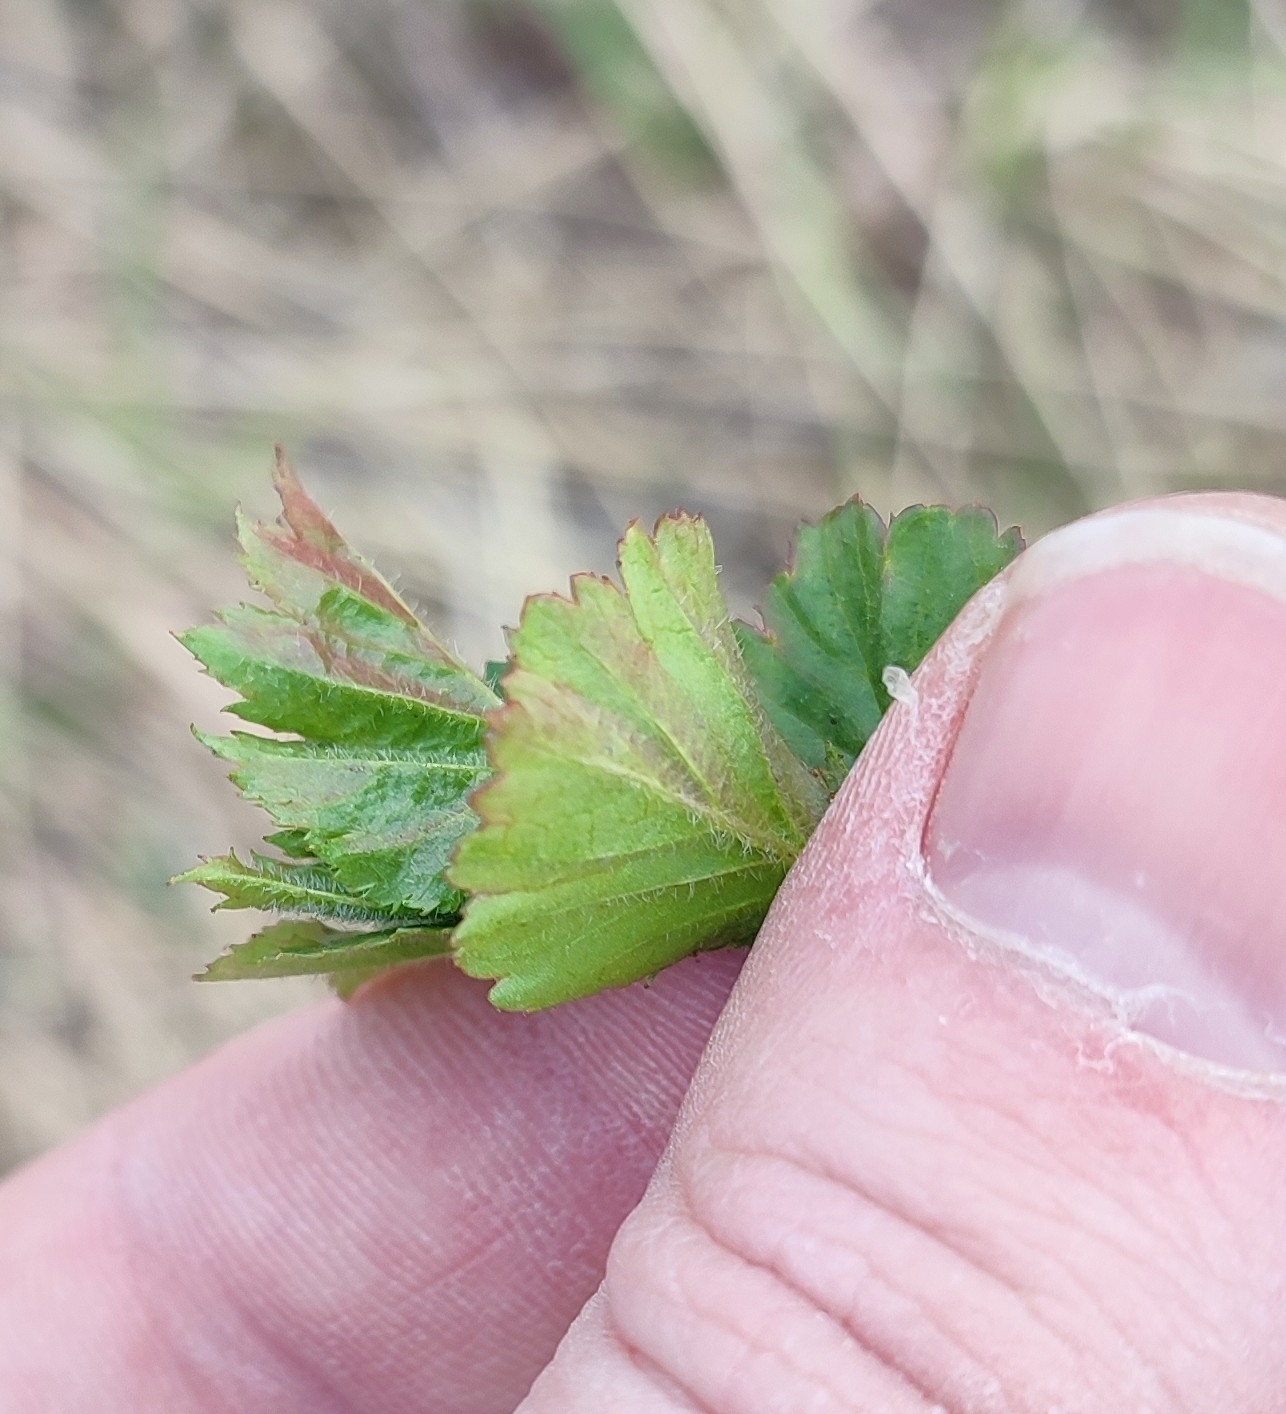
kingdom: Plantae
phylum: Tracheophyta
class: Magnoliopsida
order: Rosales
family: Rosaceae
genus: Crataegus
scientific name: Crataegus sanguinea
